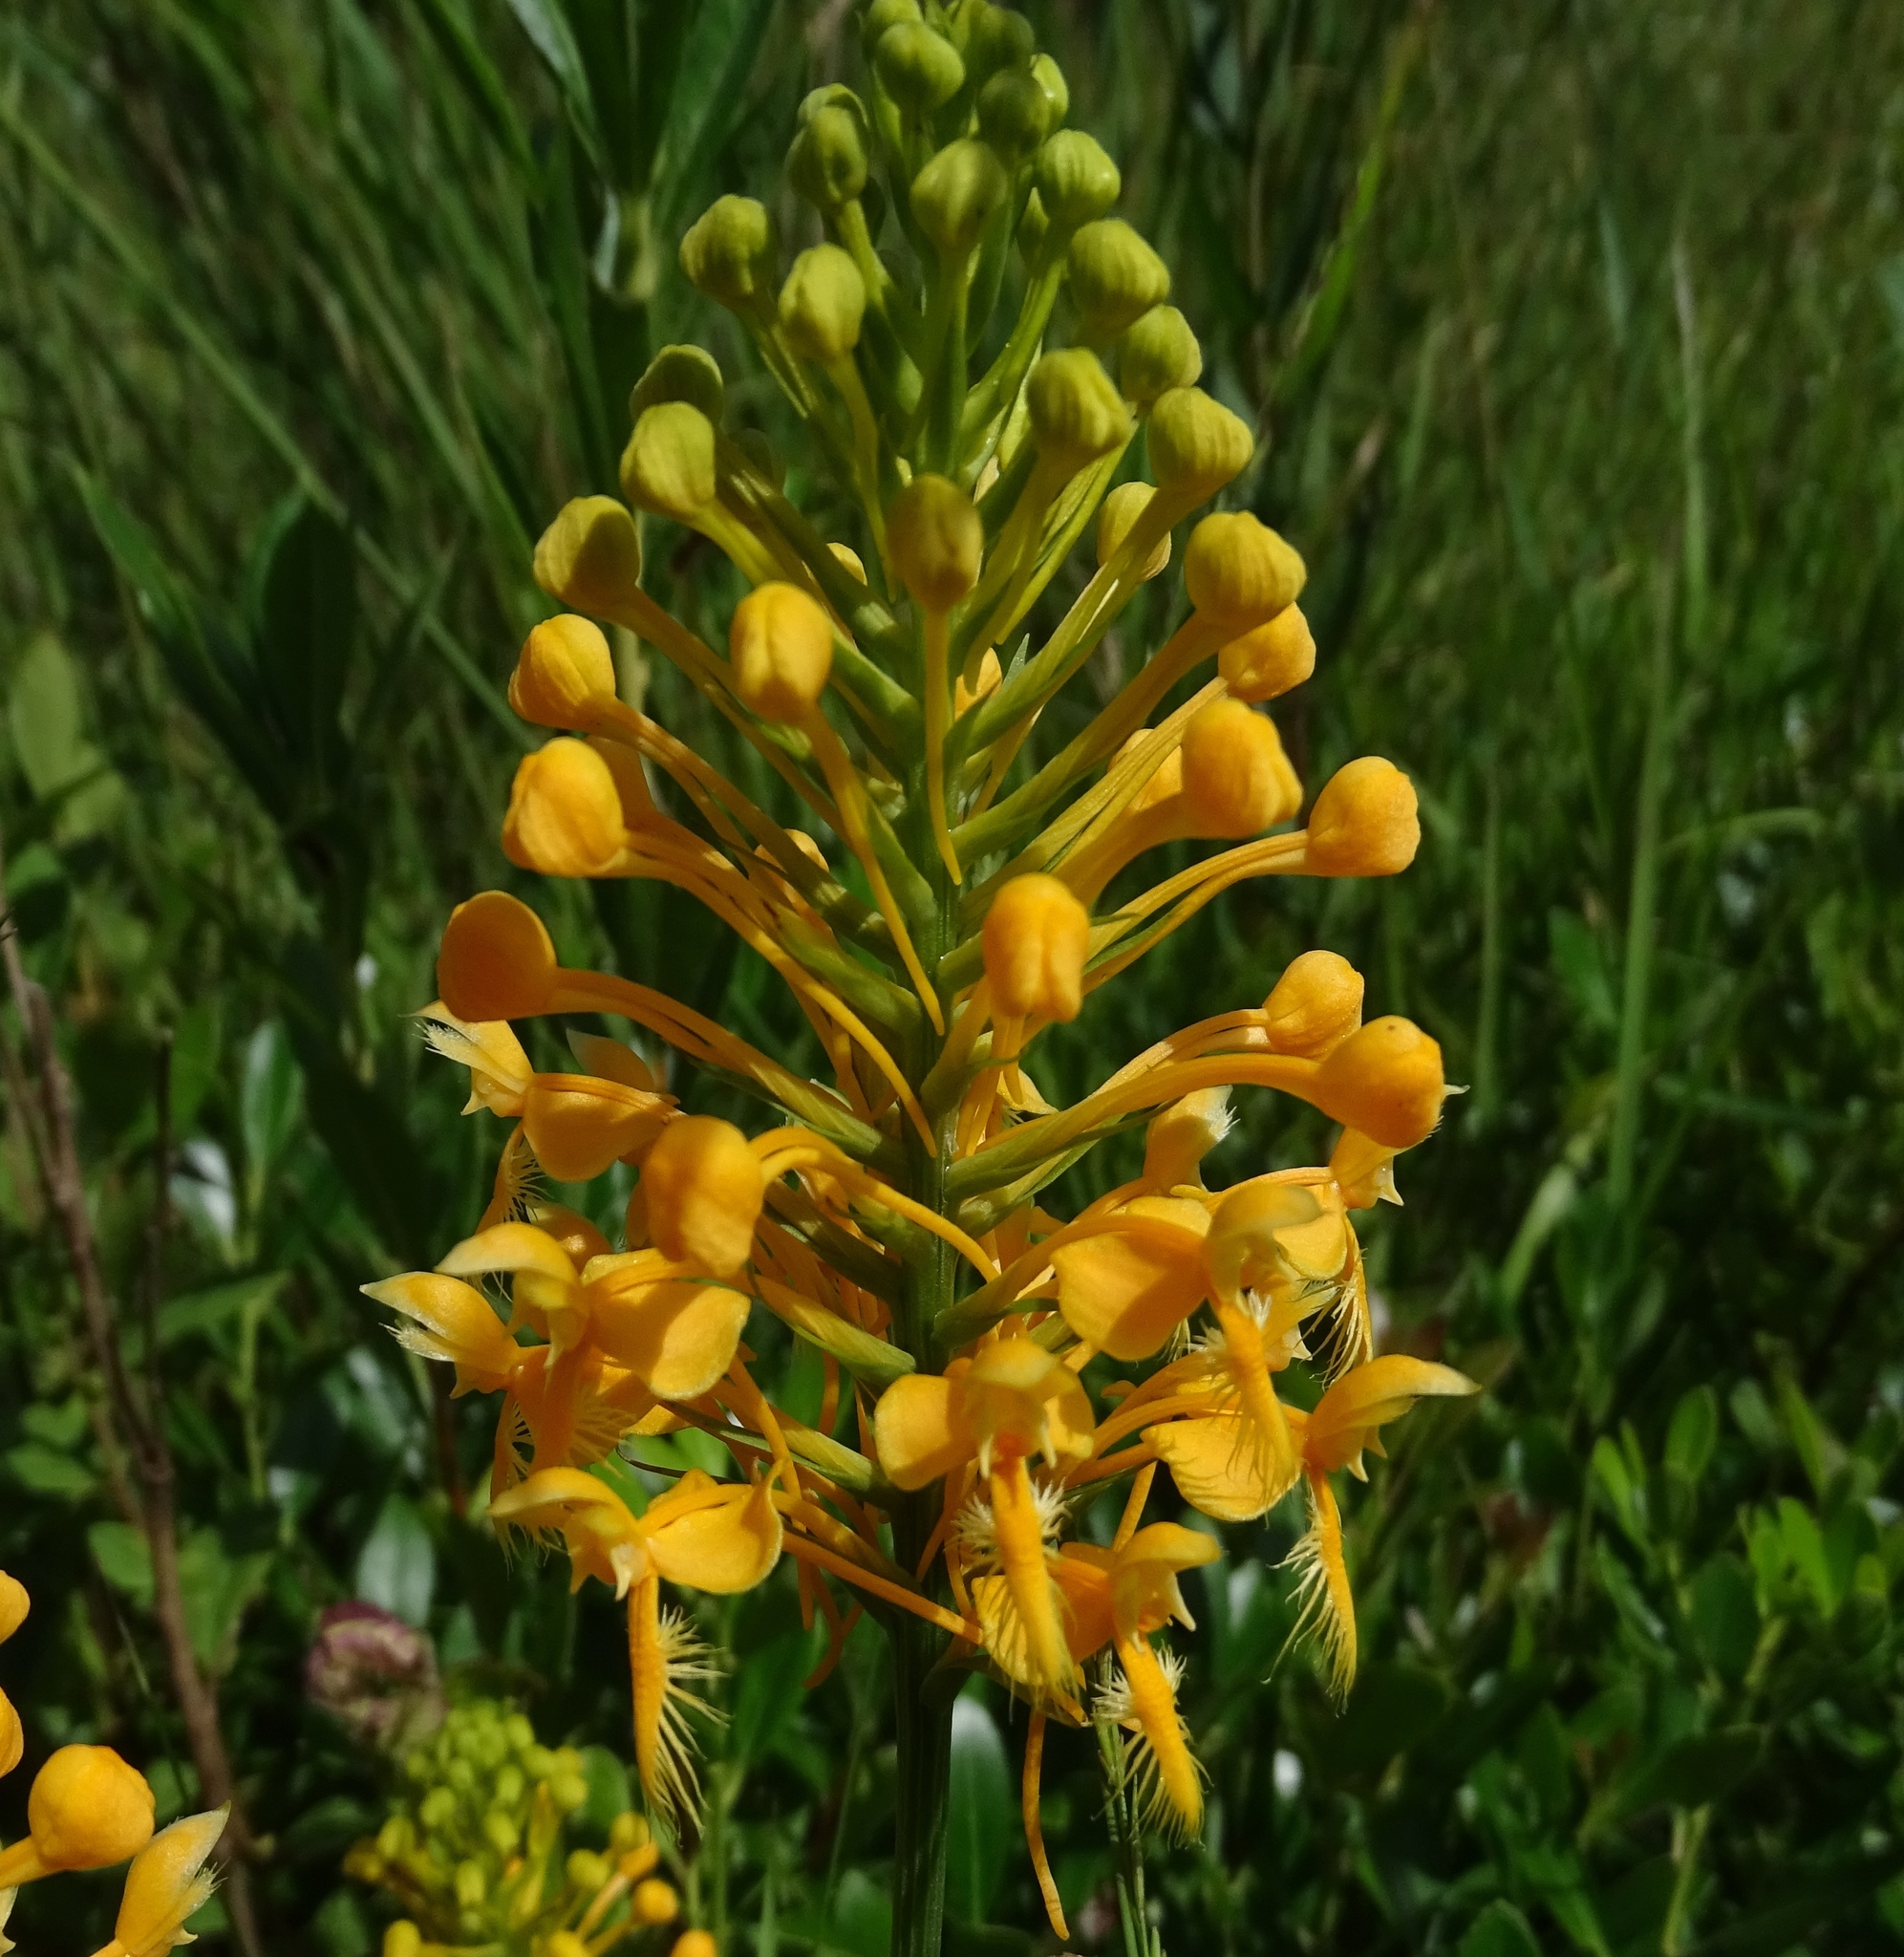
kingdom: Plantae
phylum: Tracheophyta
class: Liliopsida
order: Asparagales
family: Orchidaceae
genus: Platanthera
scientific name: Platanthera ciliaris
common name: Yellow fringed orchid
